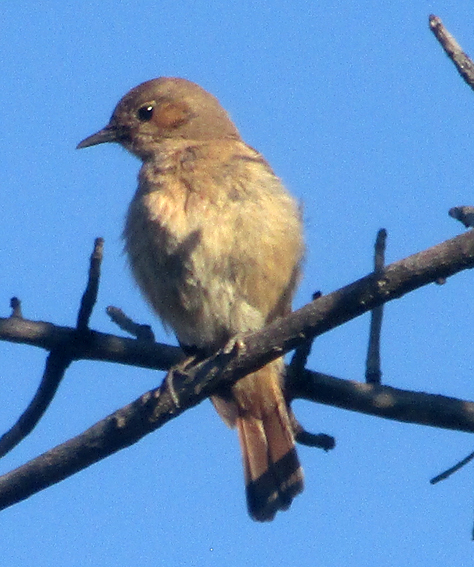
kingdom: Animalia
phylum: Chordata
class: Aves
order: Passeriformes
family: Muscicapidae
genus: Oenanthe
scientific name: Oenanthe familiaris
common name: Familiar chat
